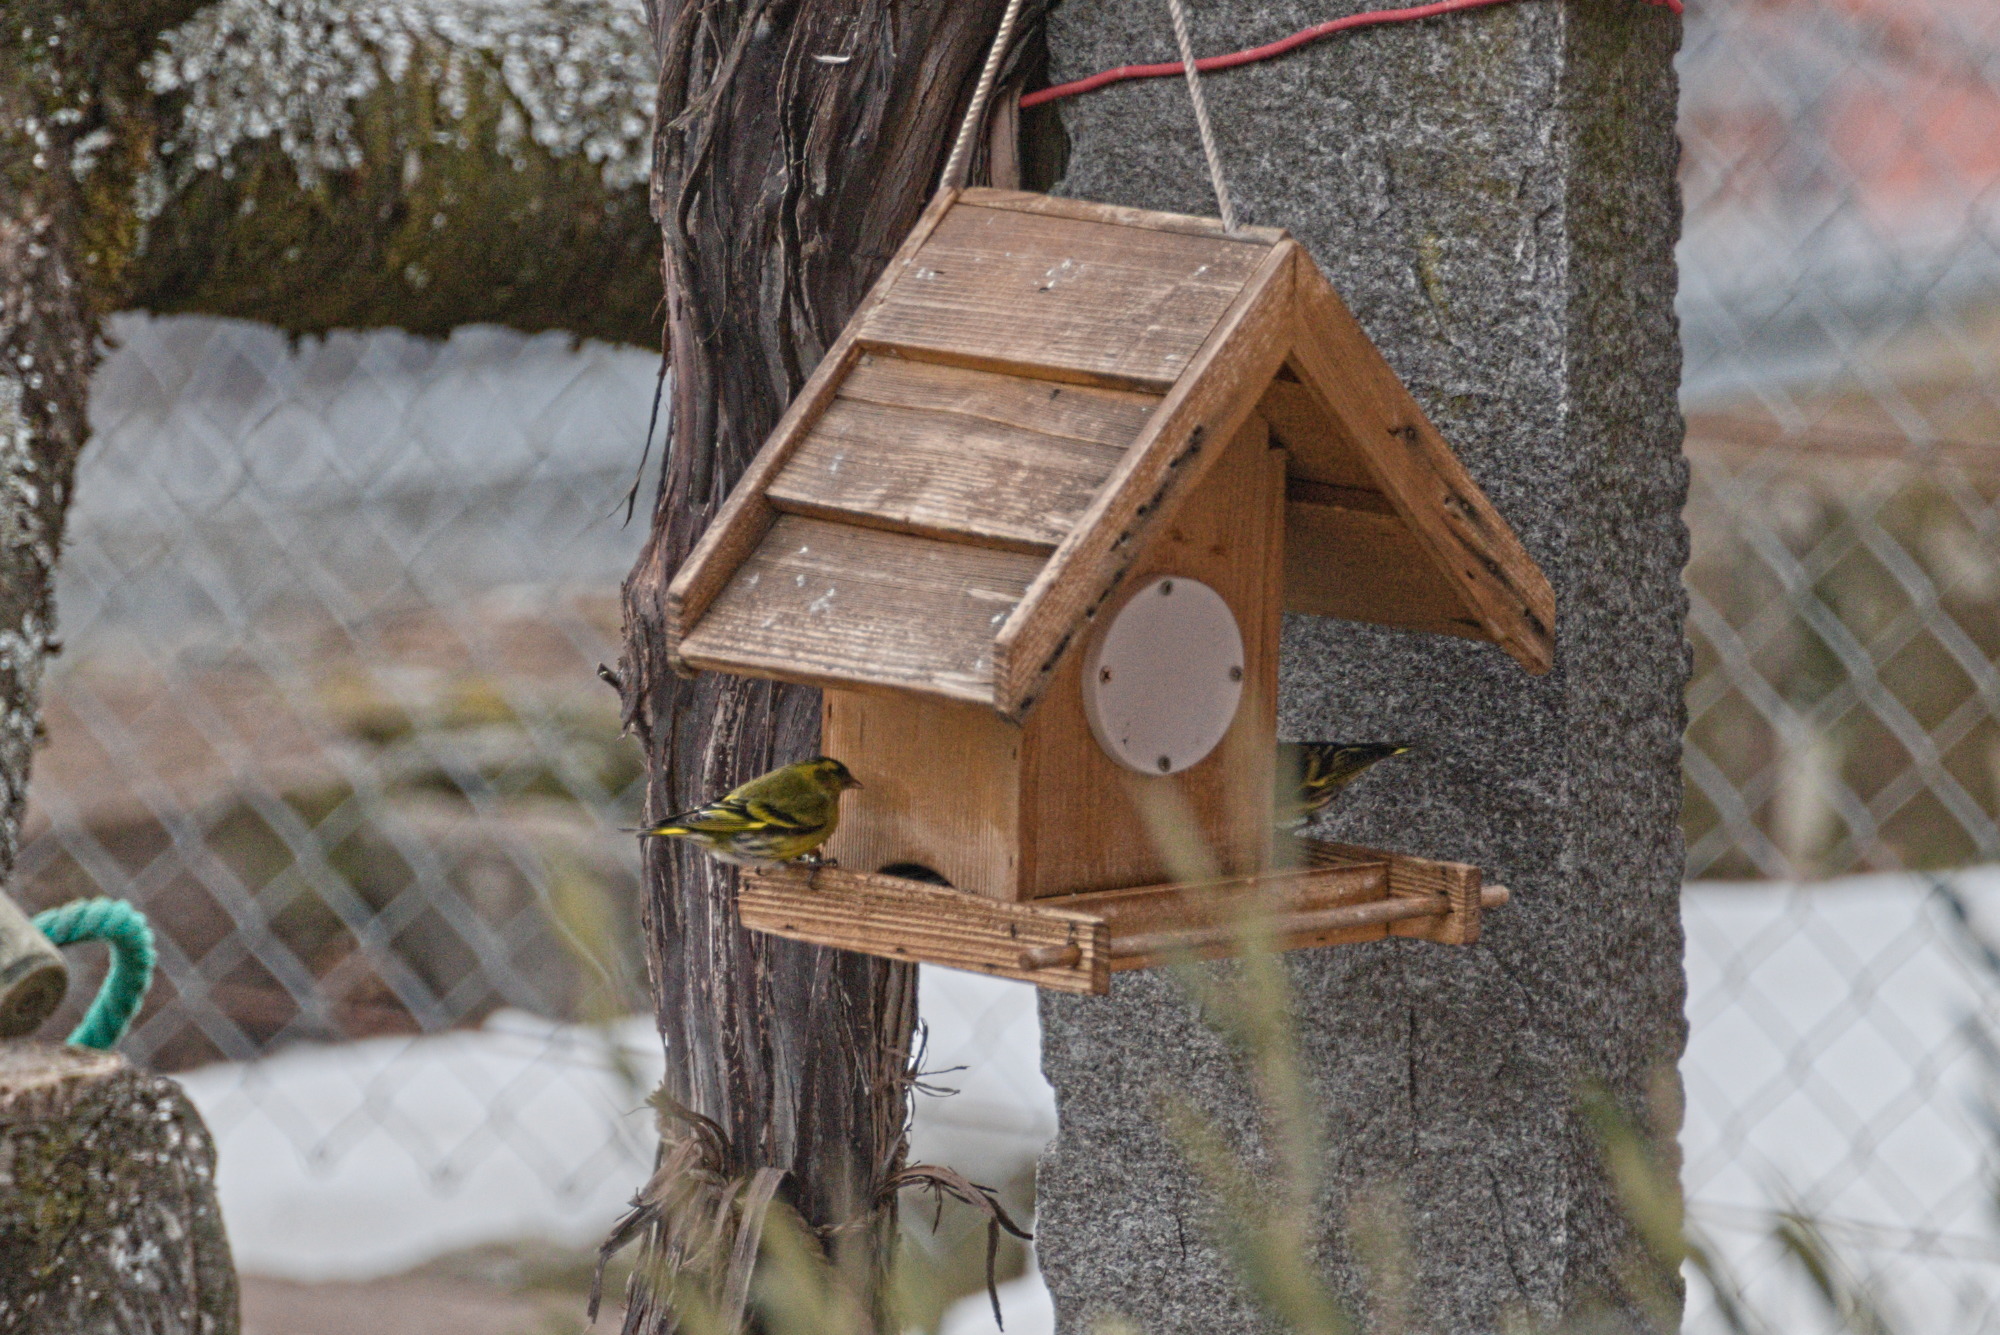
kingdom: Animalia
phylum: Chordata
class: Aves
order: Passeriformes
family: Fringillidae
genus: Spinus
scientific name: Spinus spinus
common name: Eurasian siskin
